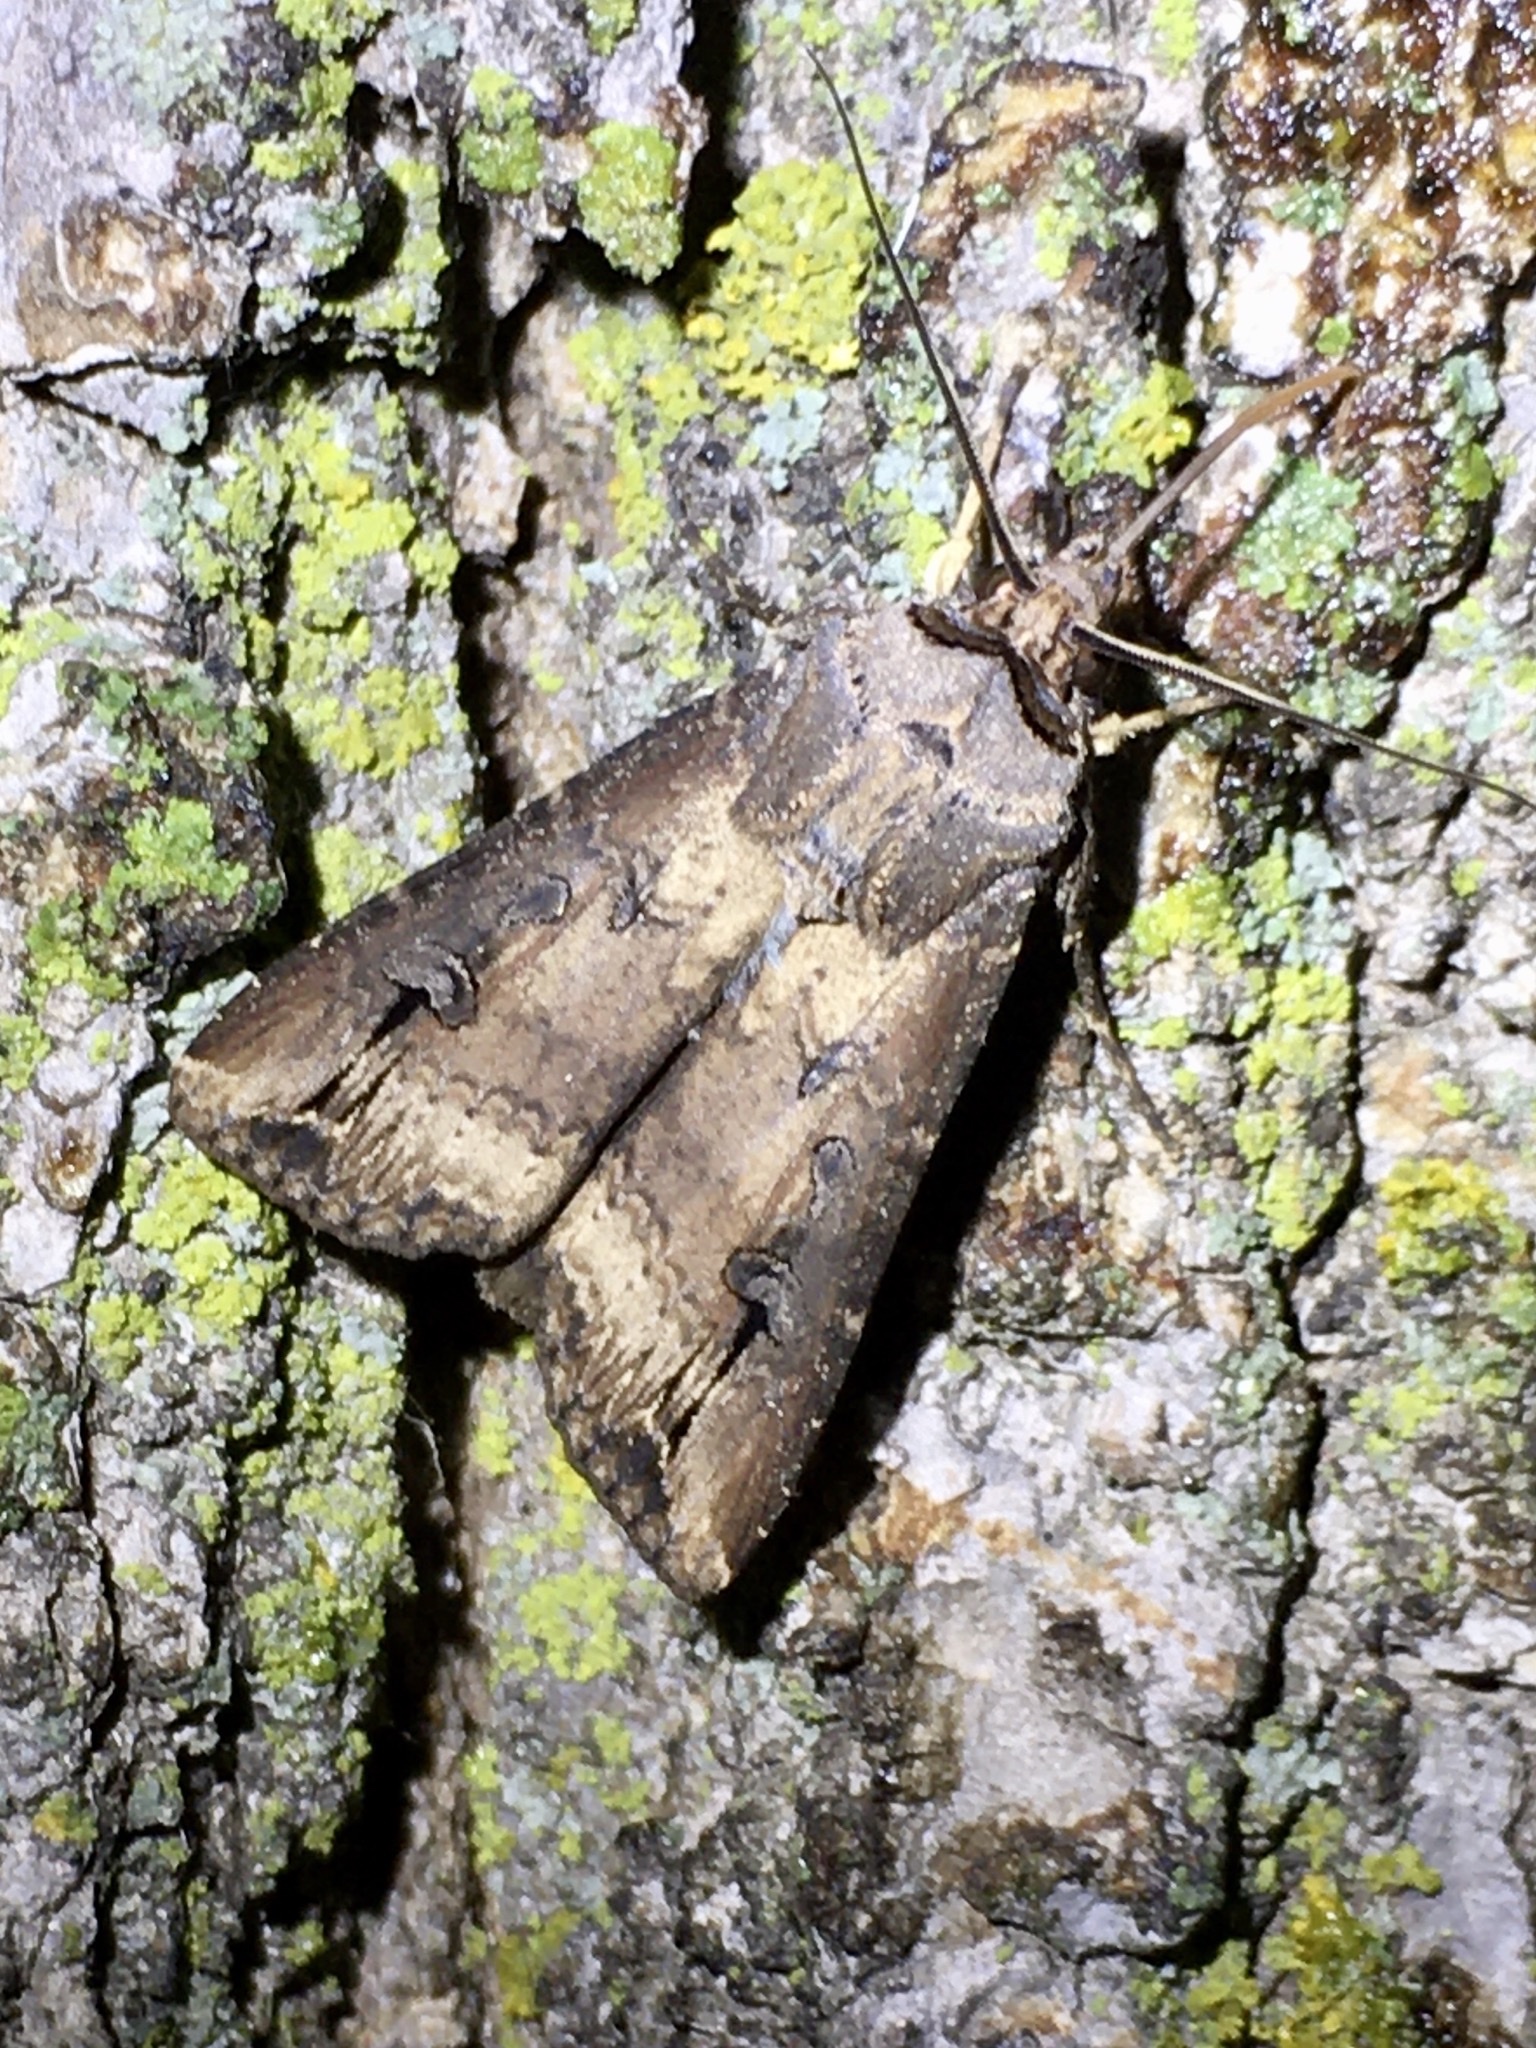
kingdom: Animalia
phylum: Arthropoda
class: Insecta
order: Lepidoptera
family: Noctuidae
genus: Agrotis
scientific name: Agrotis ipsilon
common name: Dark sword-grass
